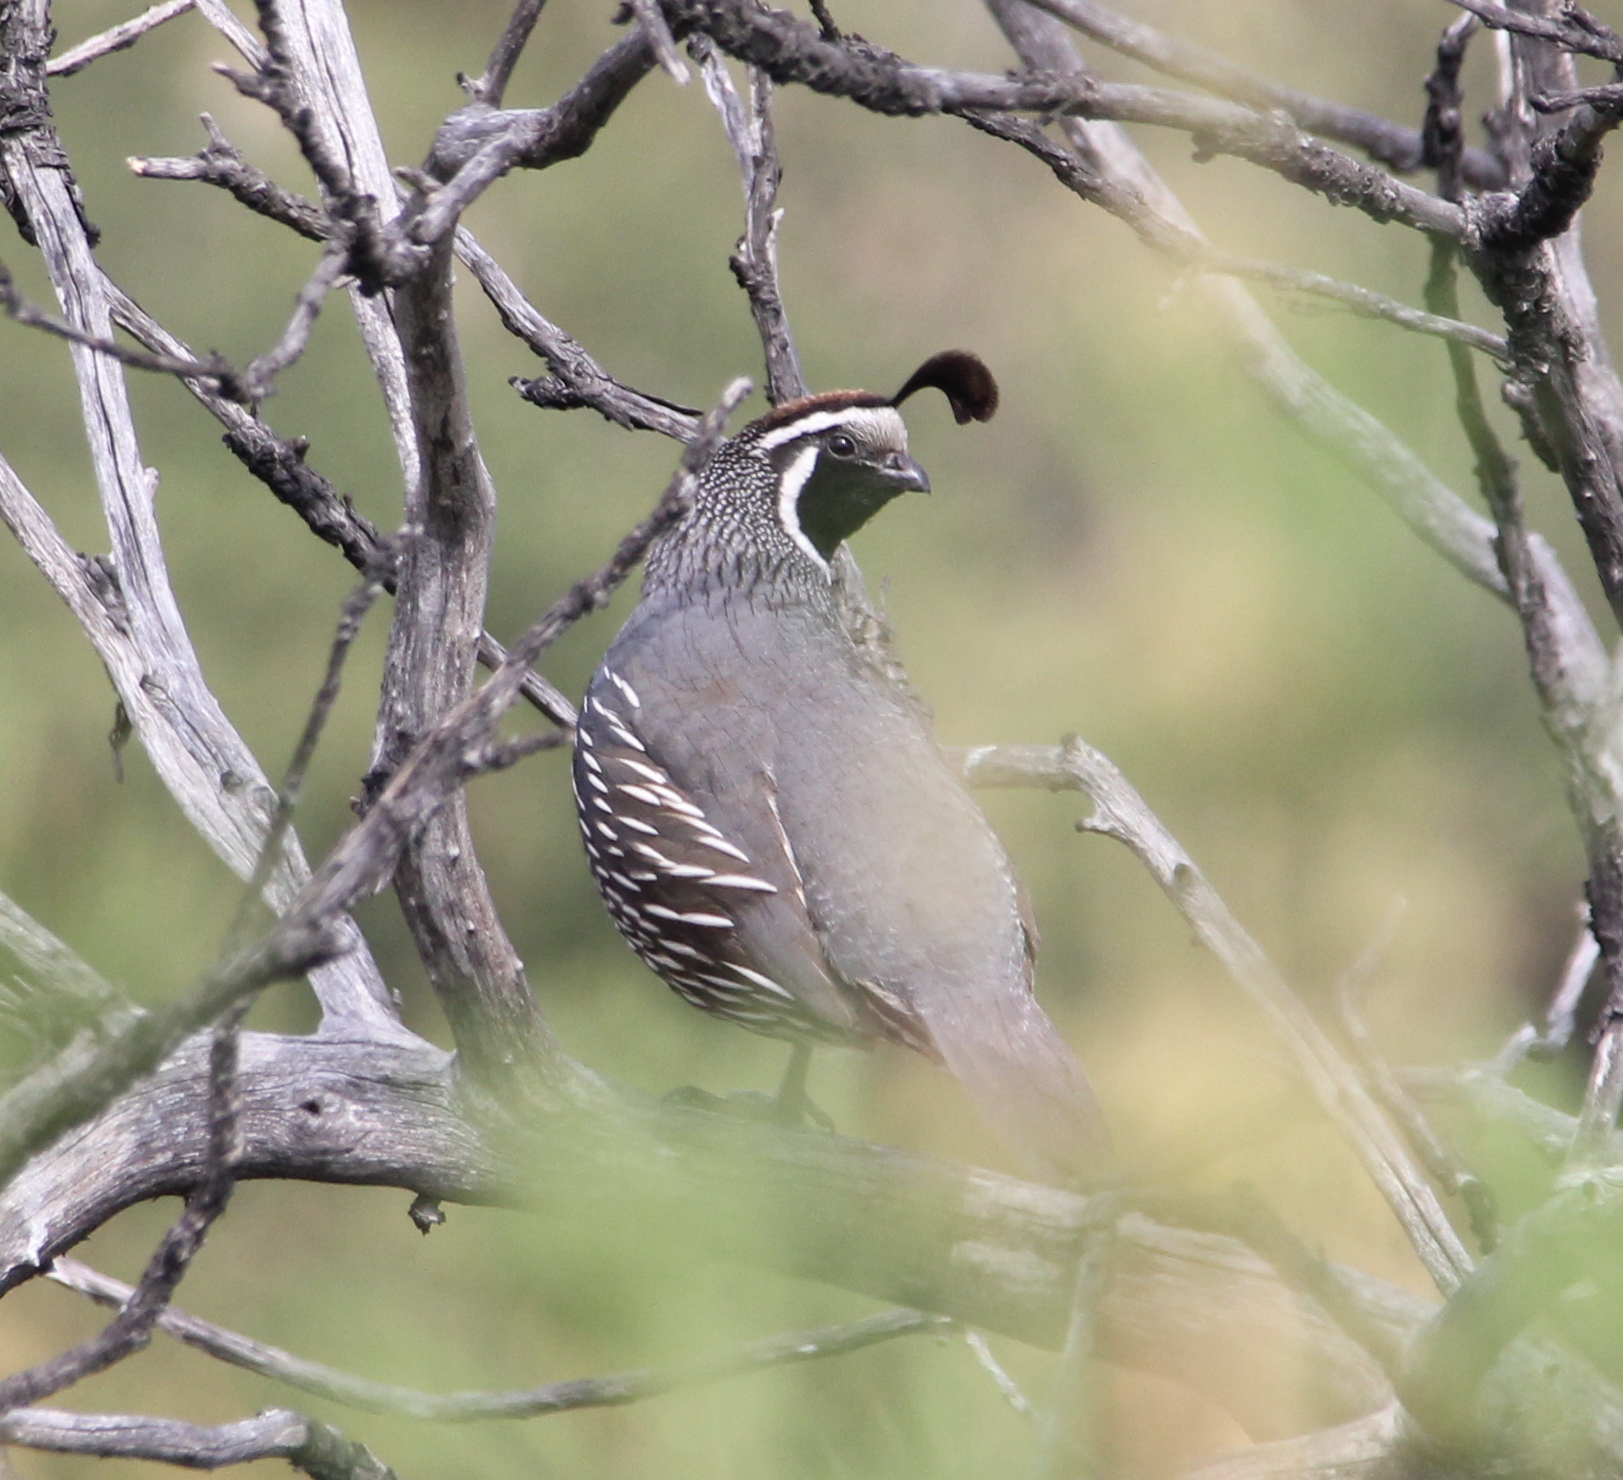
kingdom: Animalia
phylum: Chordata
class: Aves
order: Galliformes
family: Odontophoridae
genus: Callipepla
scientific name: Callipepla californica
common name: California quail
